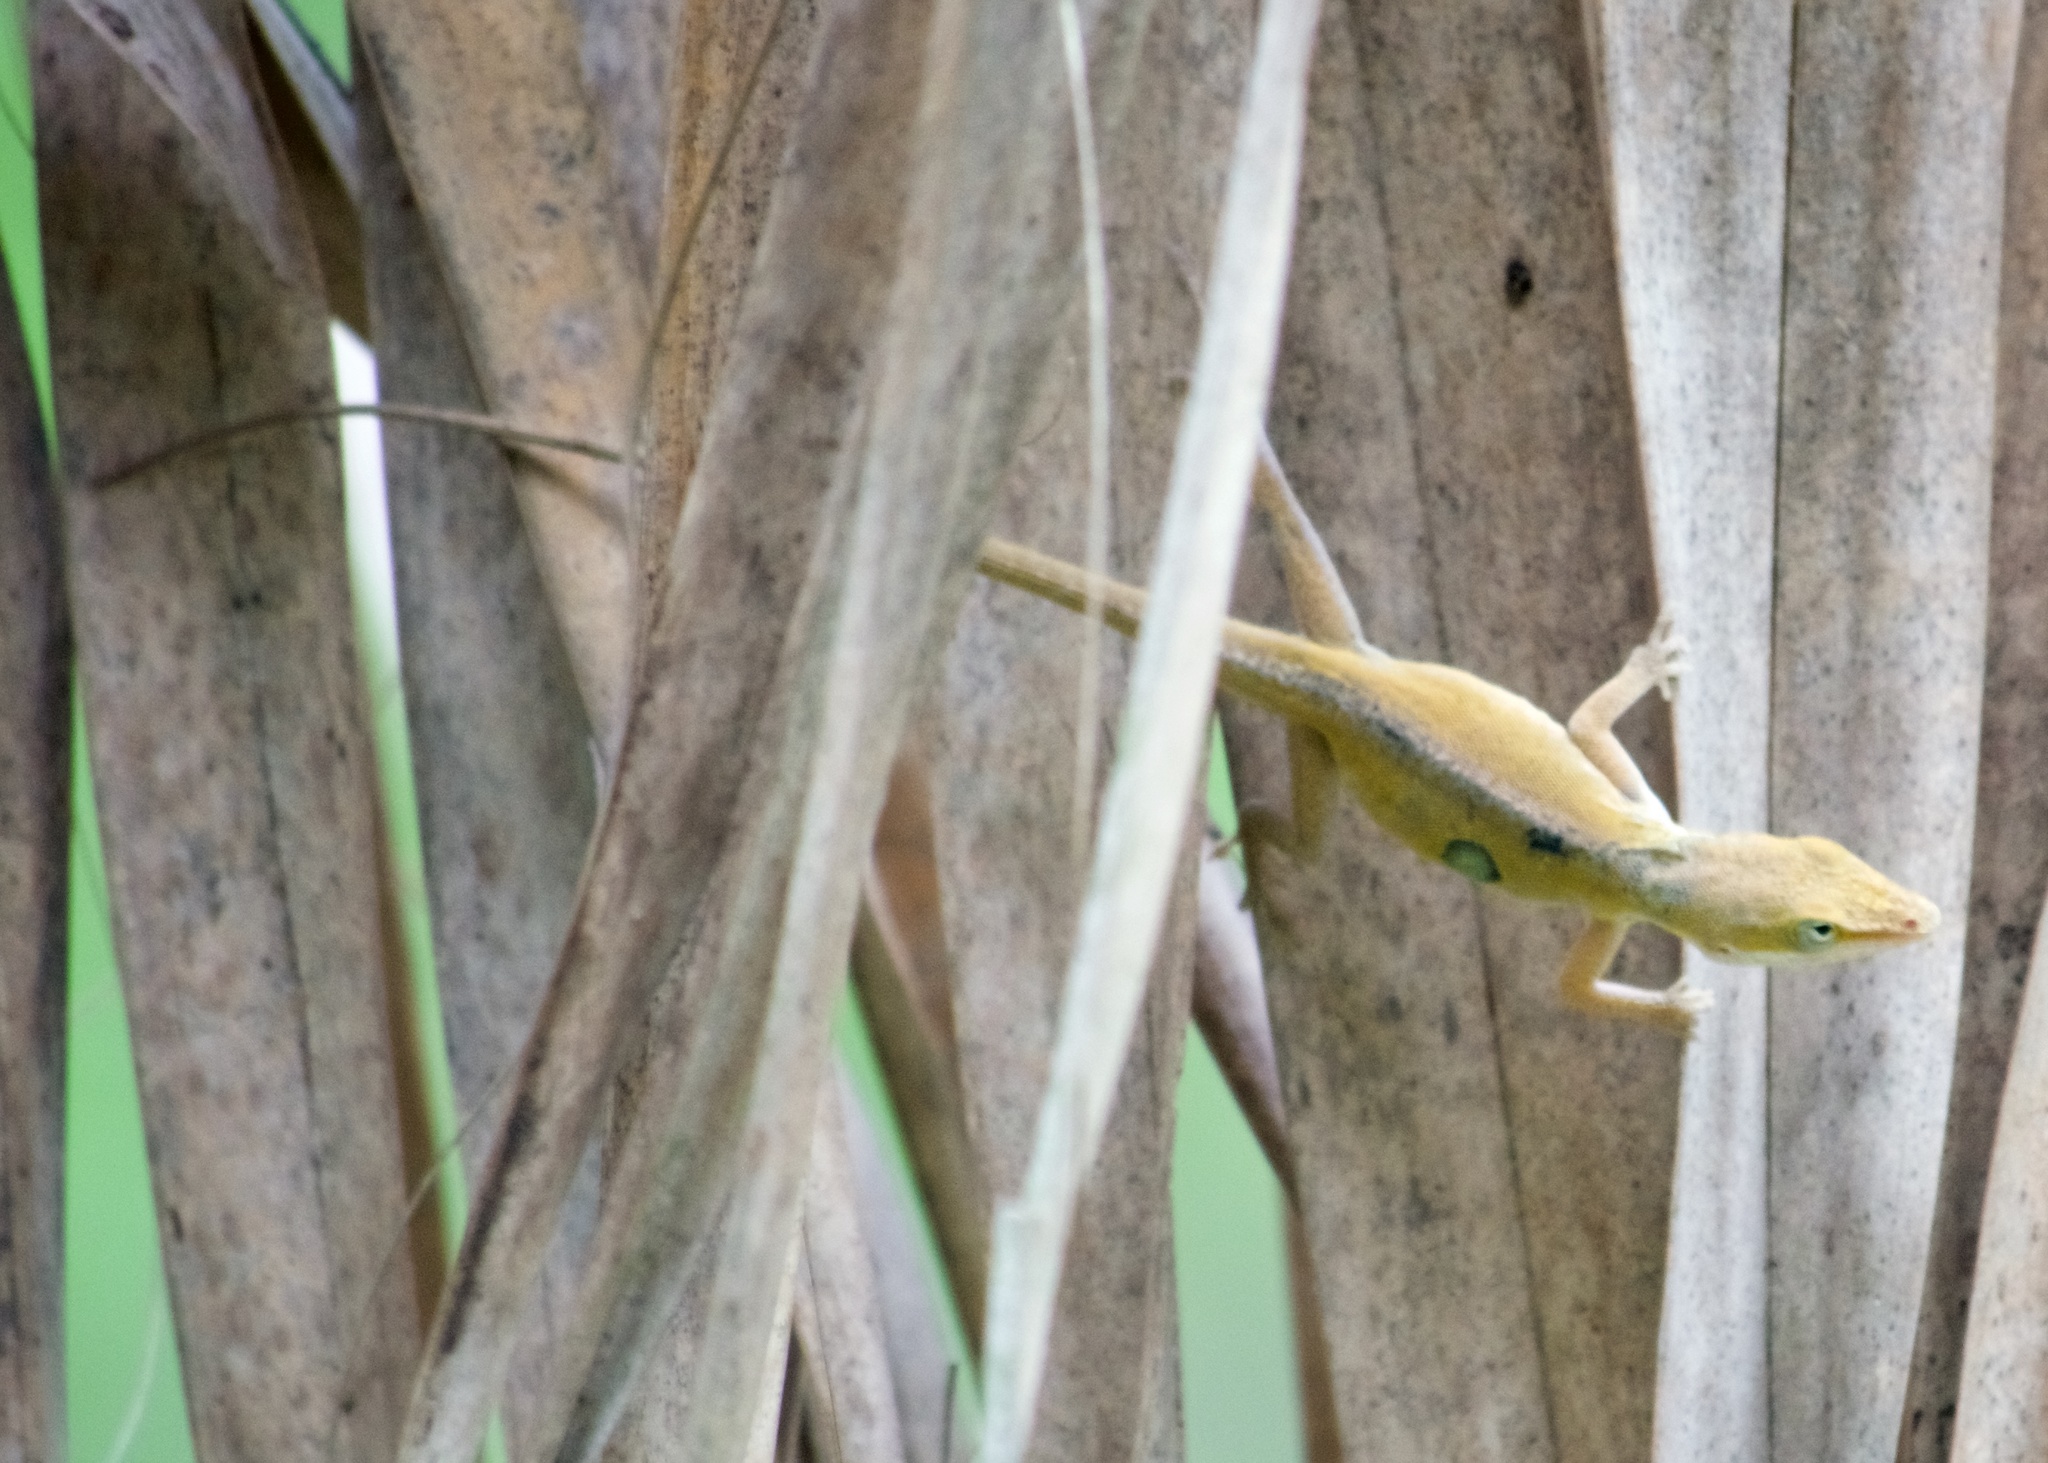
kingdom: Animalia
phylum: Chordata
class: Squamata
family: Dactyloidae
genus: Anolis
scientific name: Anolis carolinensis
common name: Green anole
